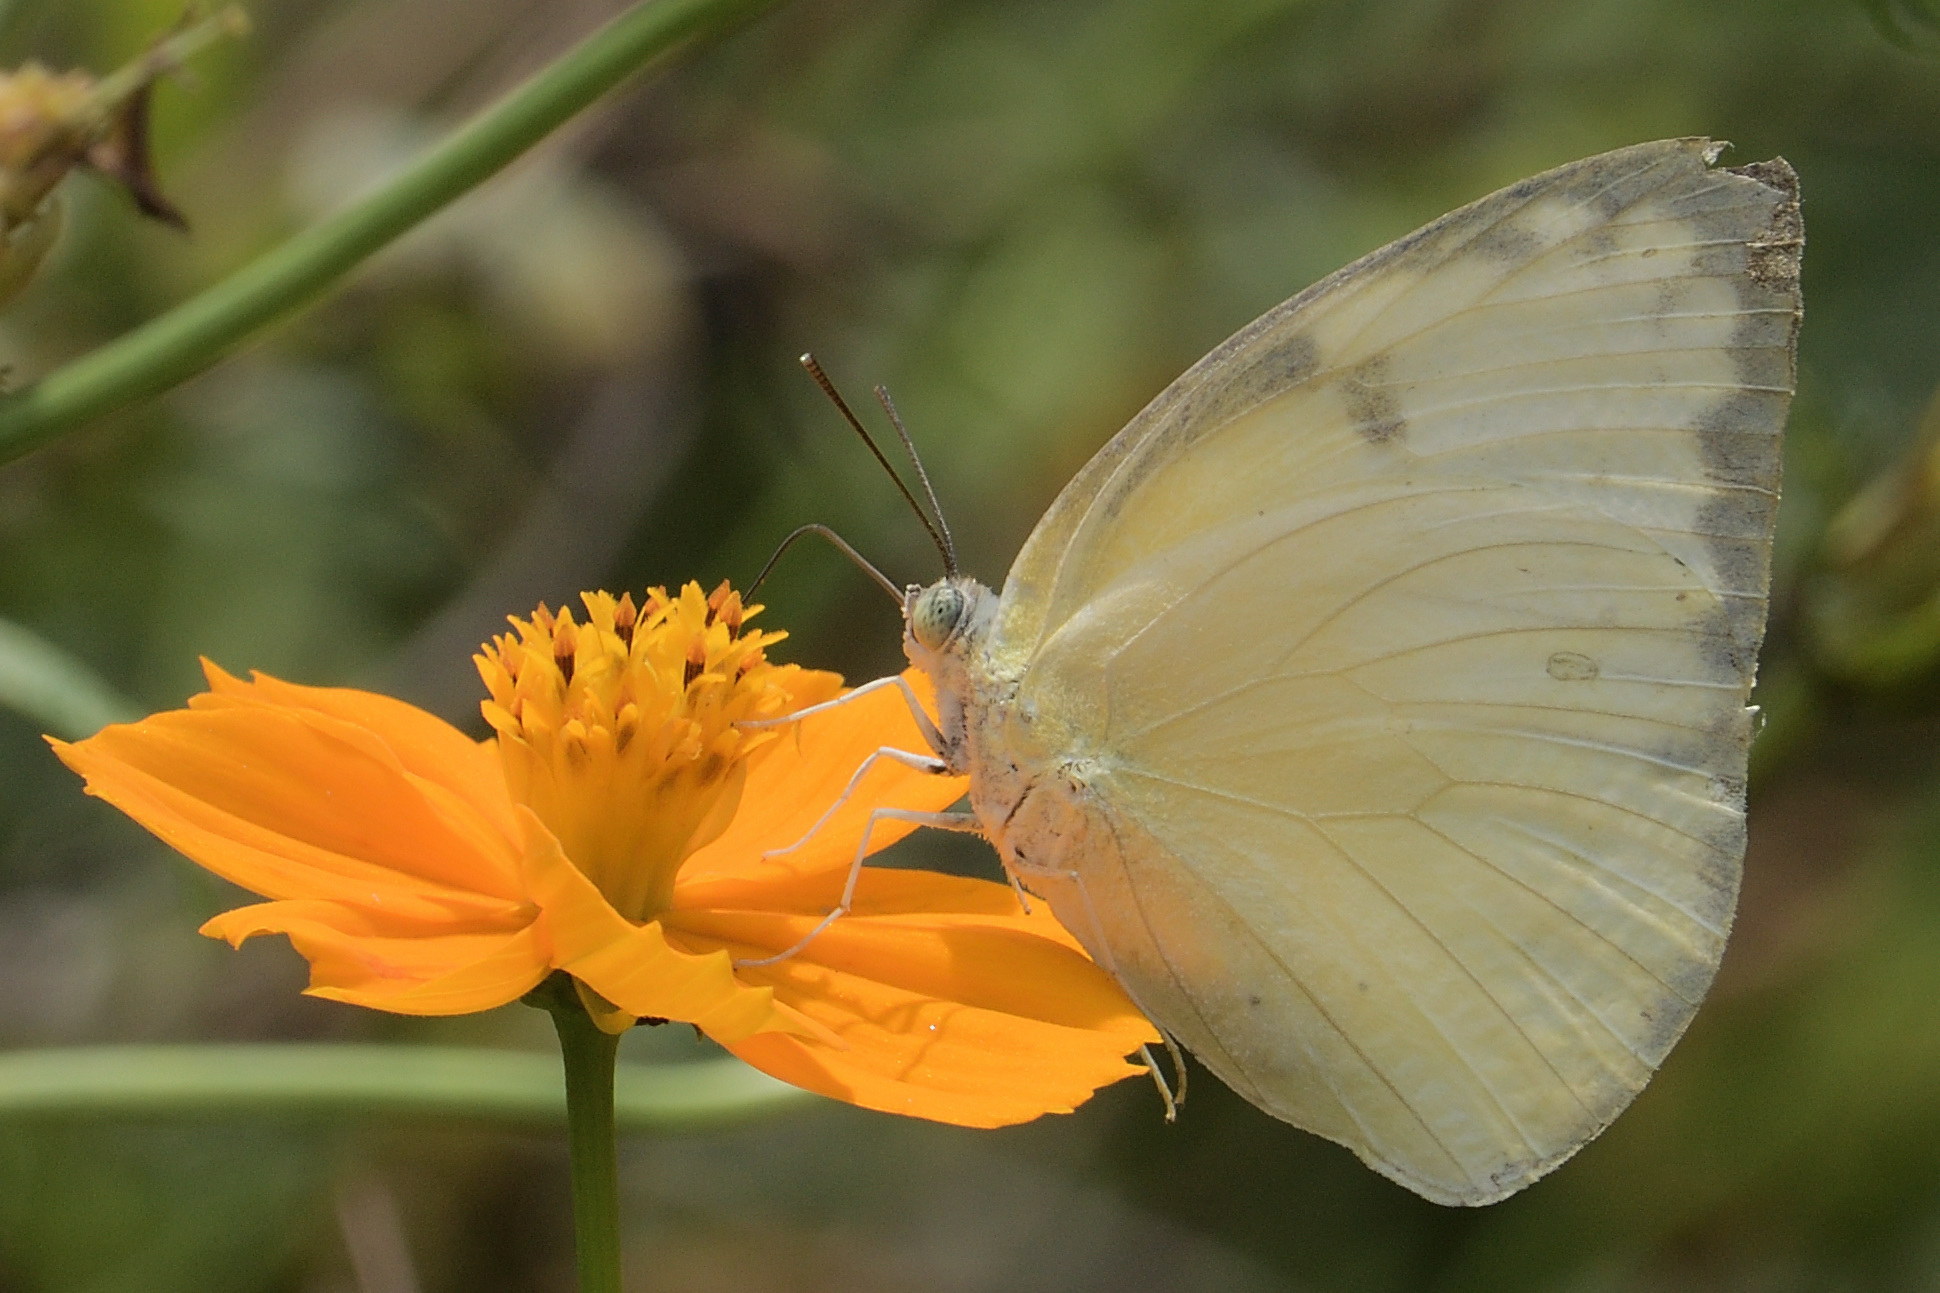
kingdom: Animalia
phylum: Arthropoda
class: Insecta
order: Lepidoptera
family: Pieridae
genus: Catopsilia
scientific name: Catopsilia pomona
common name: Common emigrant
